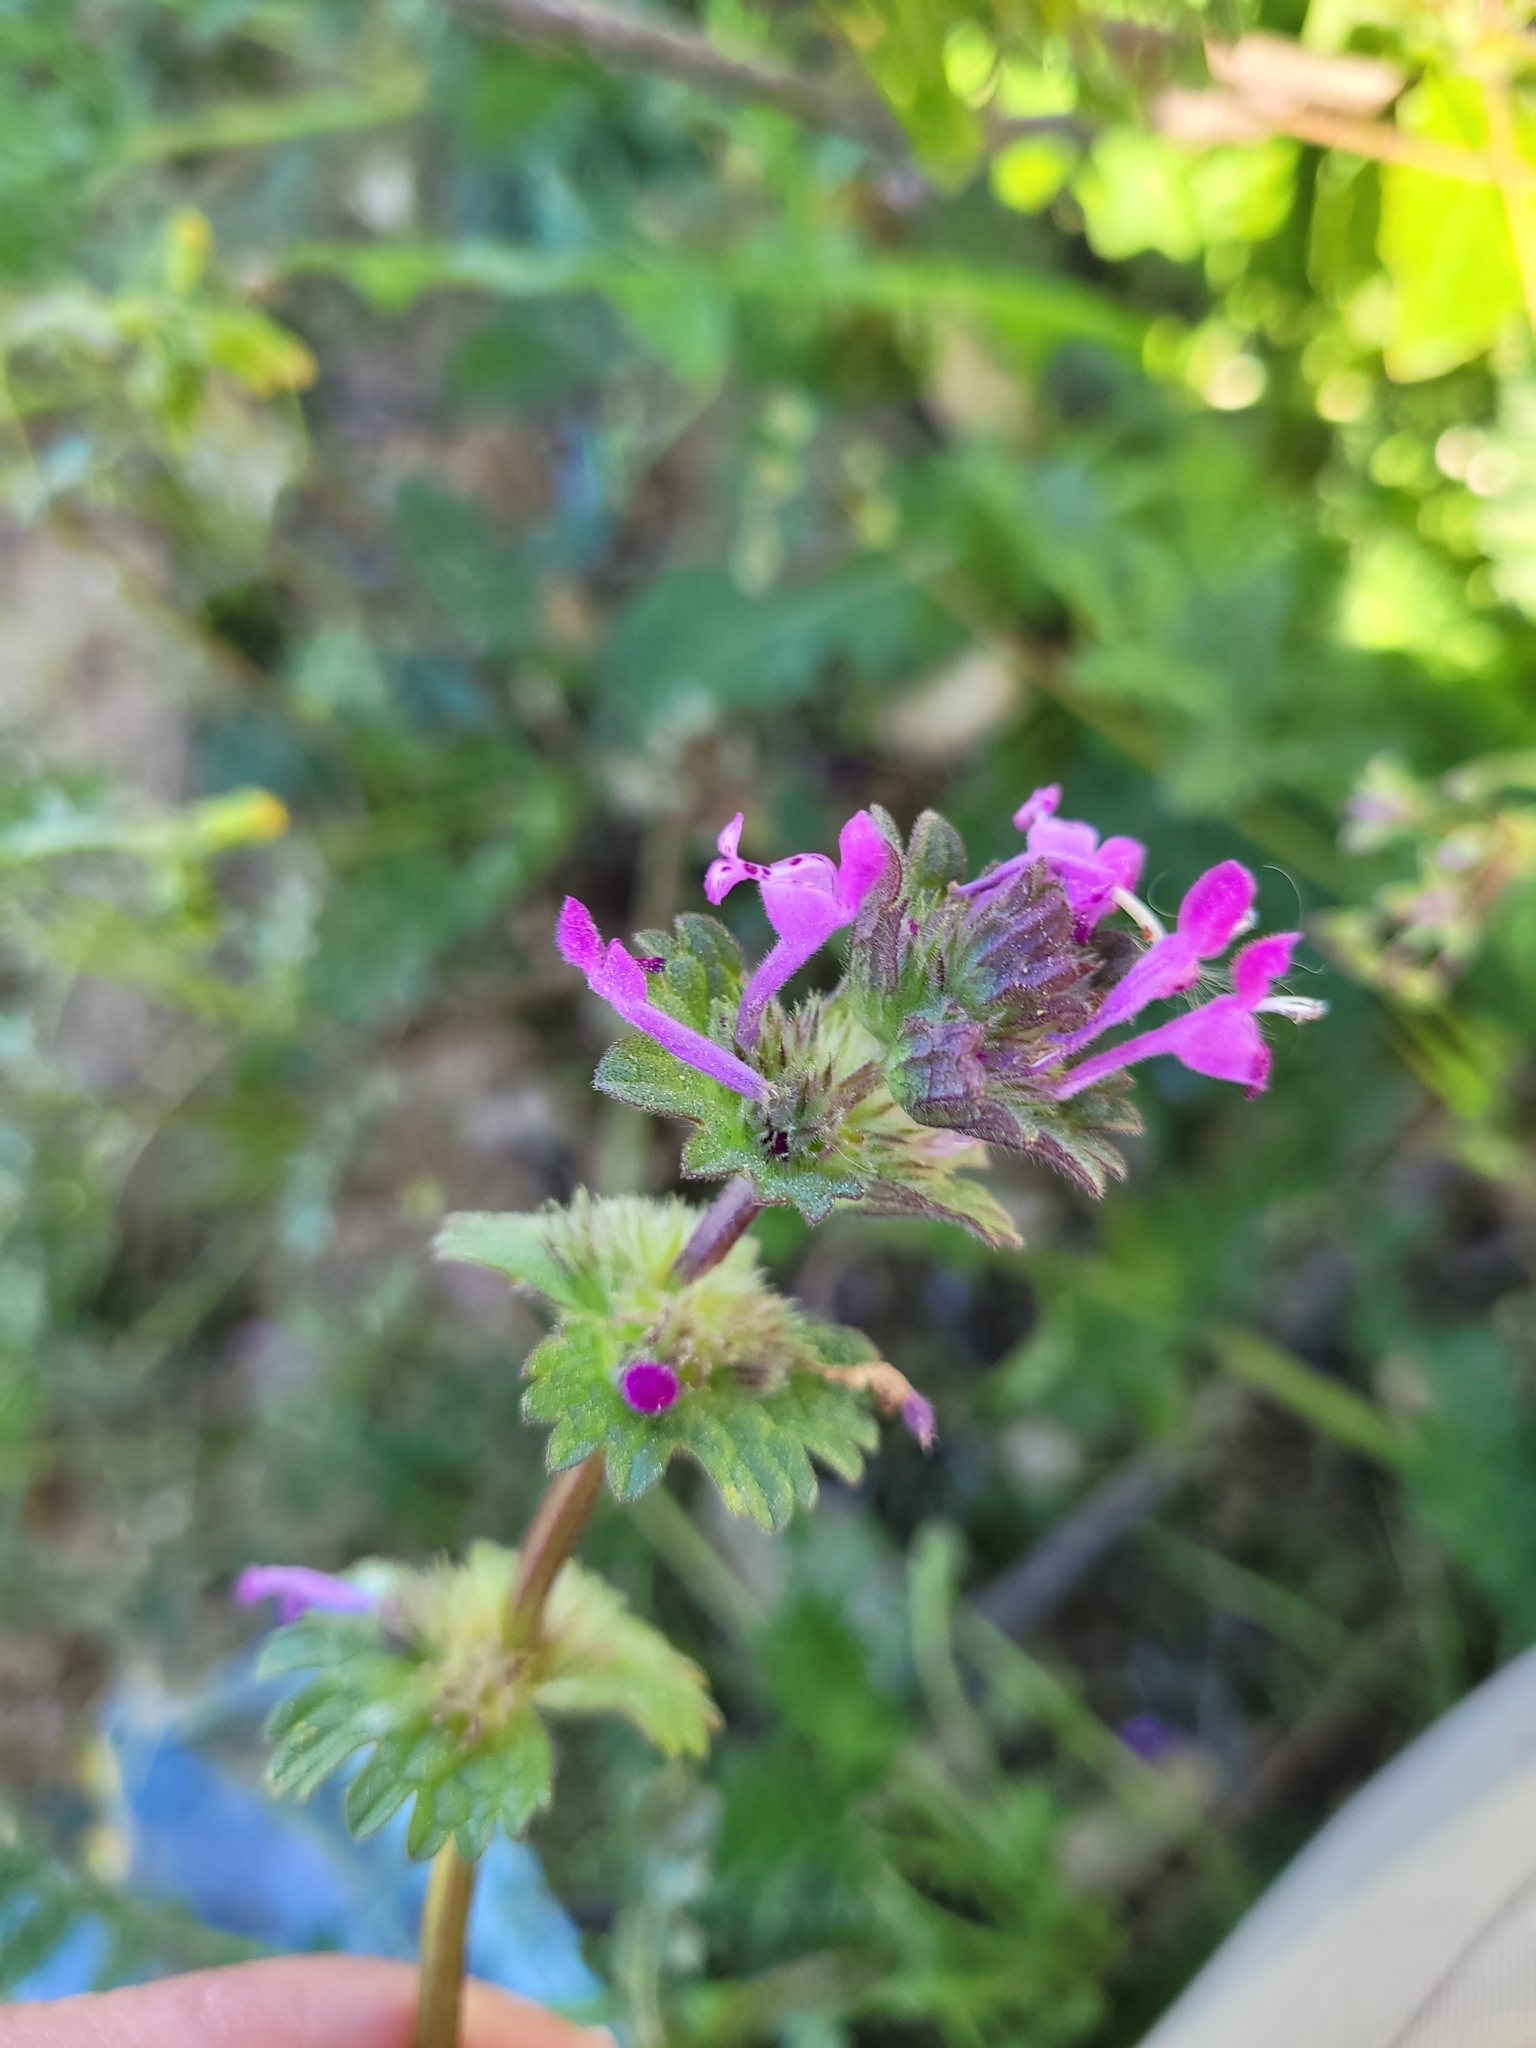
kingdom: Plantae
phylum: Tracheophyta
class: Magnoliopsida
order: Lamiales
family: Lamiaceae
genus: Lamium
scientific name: Lamium amplexicaule
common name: Henbit dead-nettle
